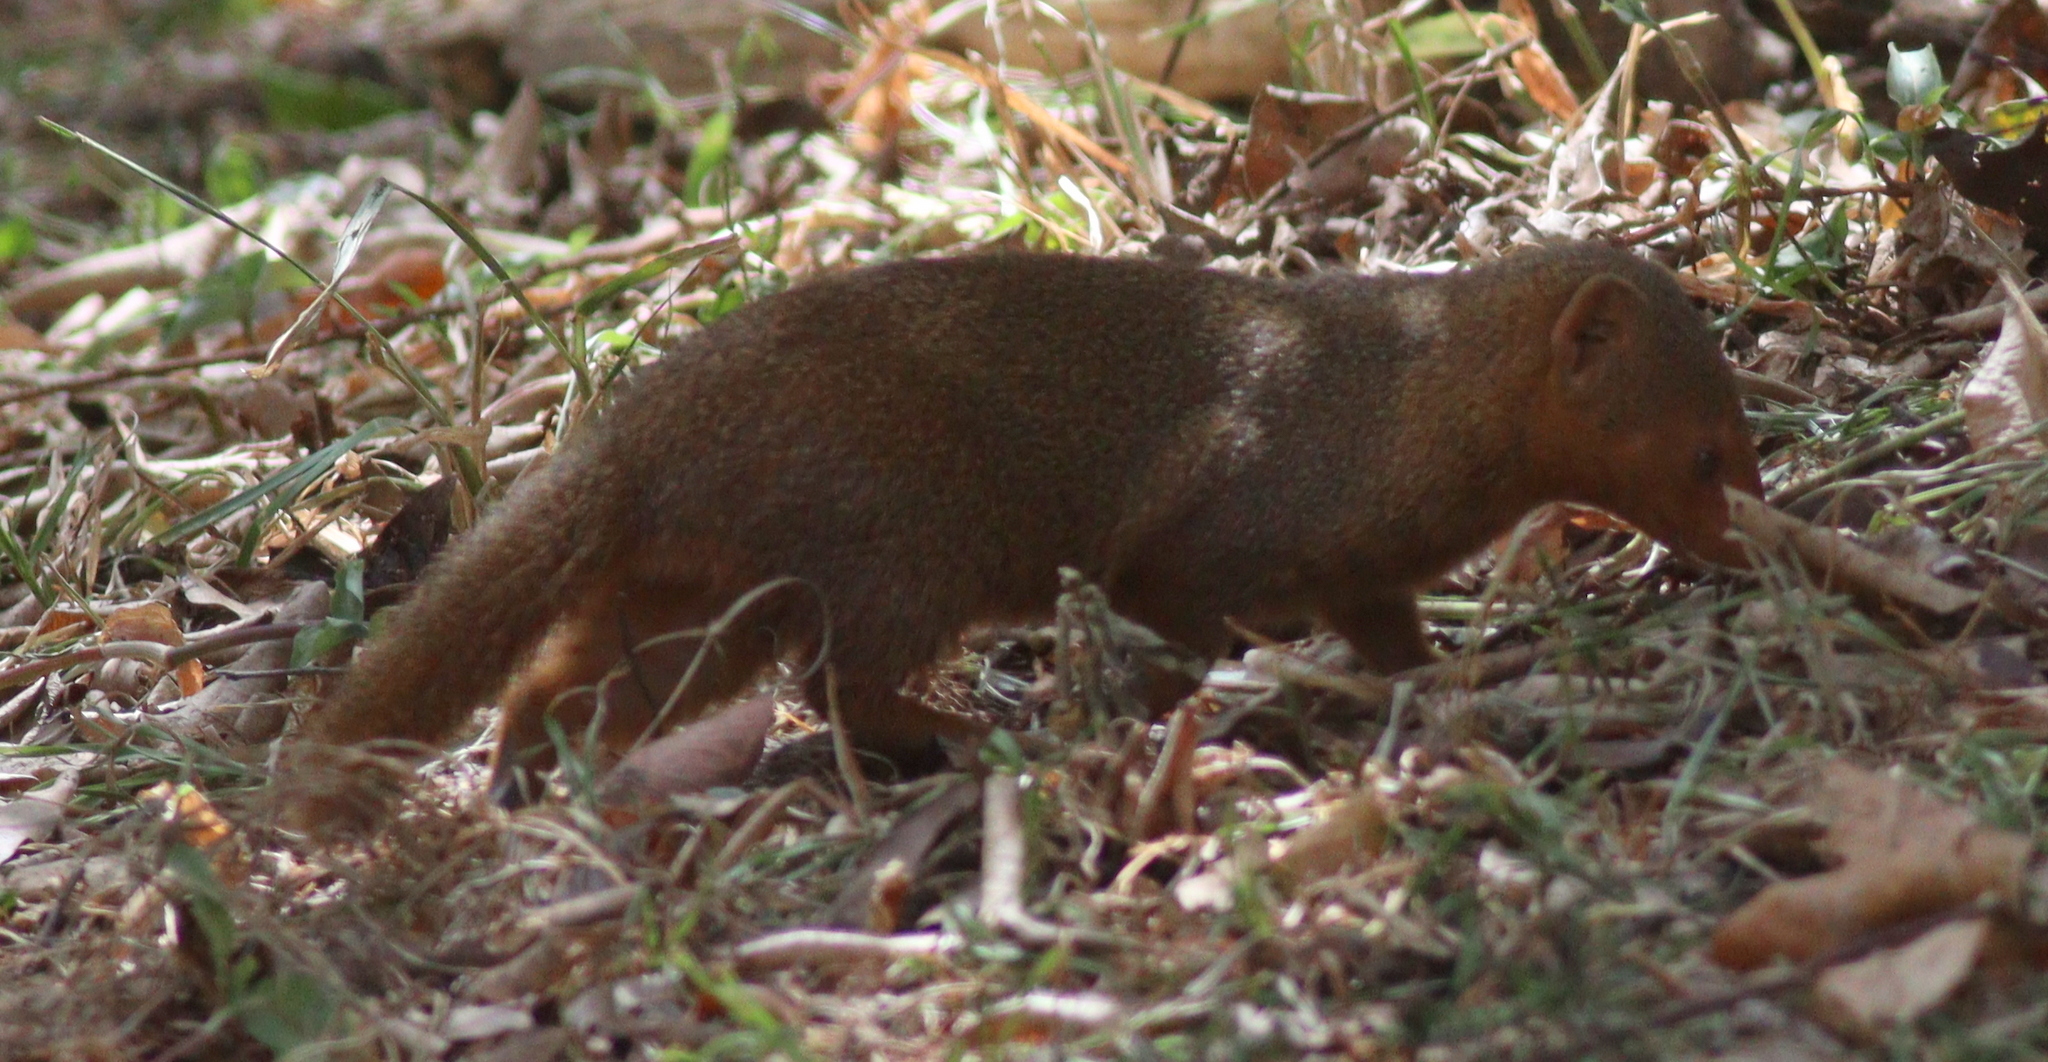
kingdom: Animalia
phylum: Chordata
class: Mammalia
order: Carnivora
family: Herpestidae
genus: Helogale
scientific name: Helogale parvula
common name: Common dwarf mongoose
